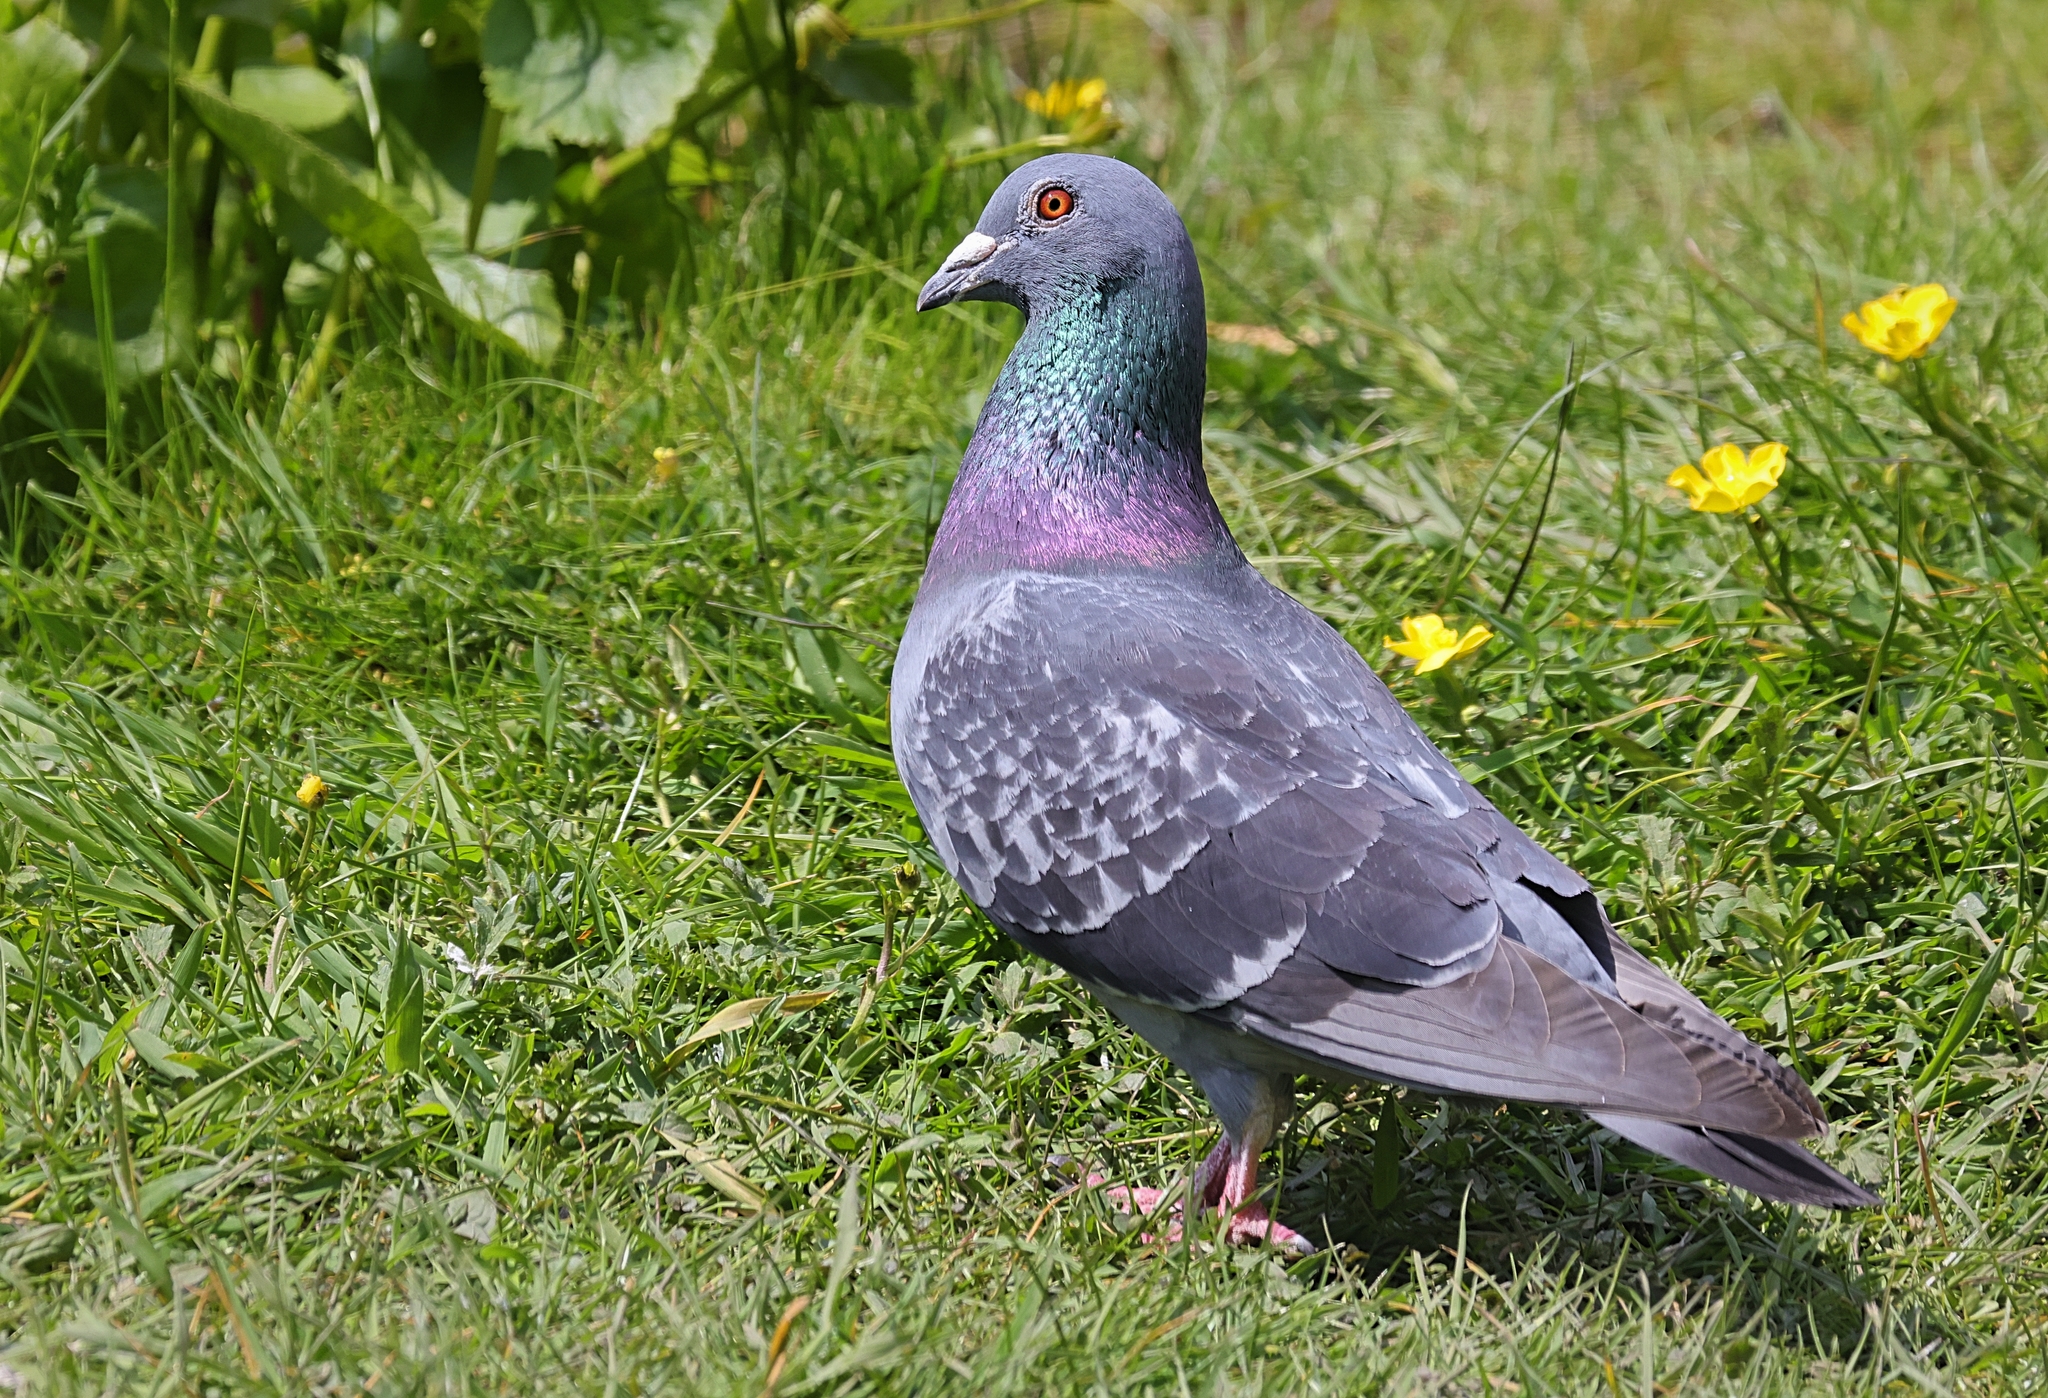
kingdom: Animalia
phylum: Chordata
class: Aves
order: Columbiformes
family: Columbidae
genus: Columba
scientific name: Columba livia
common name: Rock pigeon
